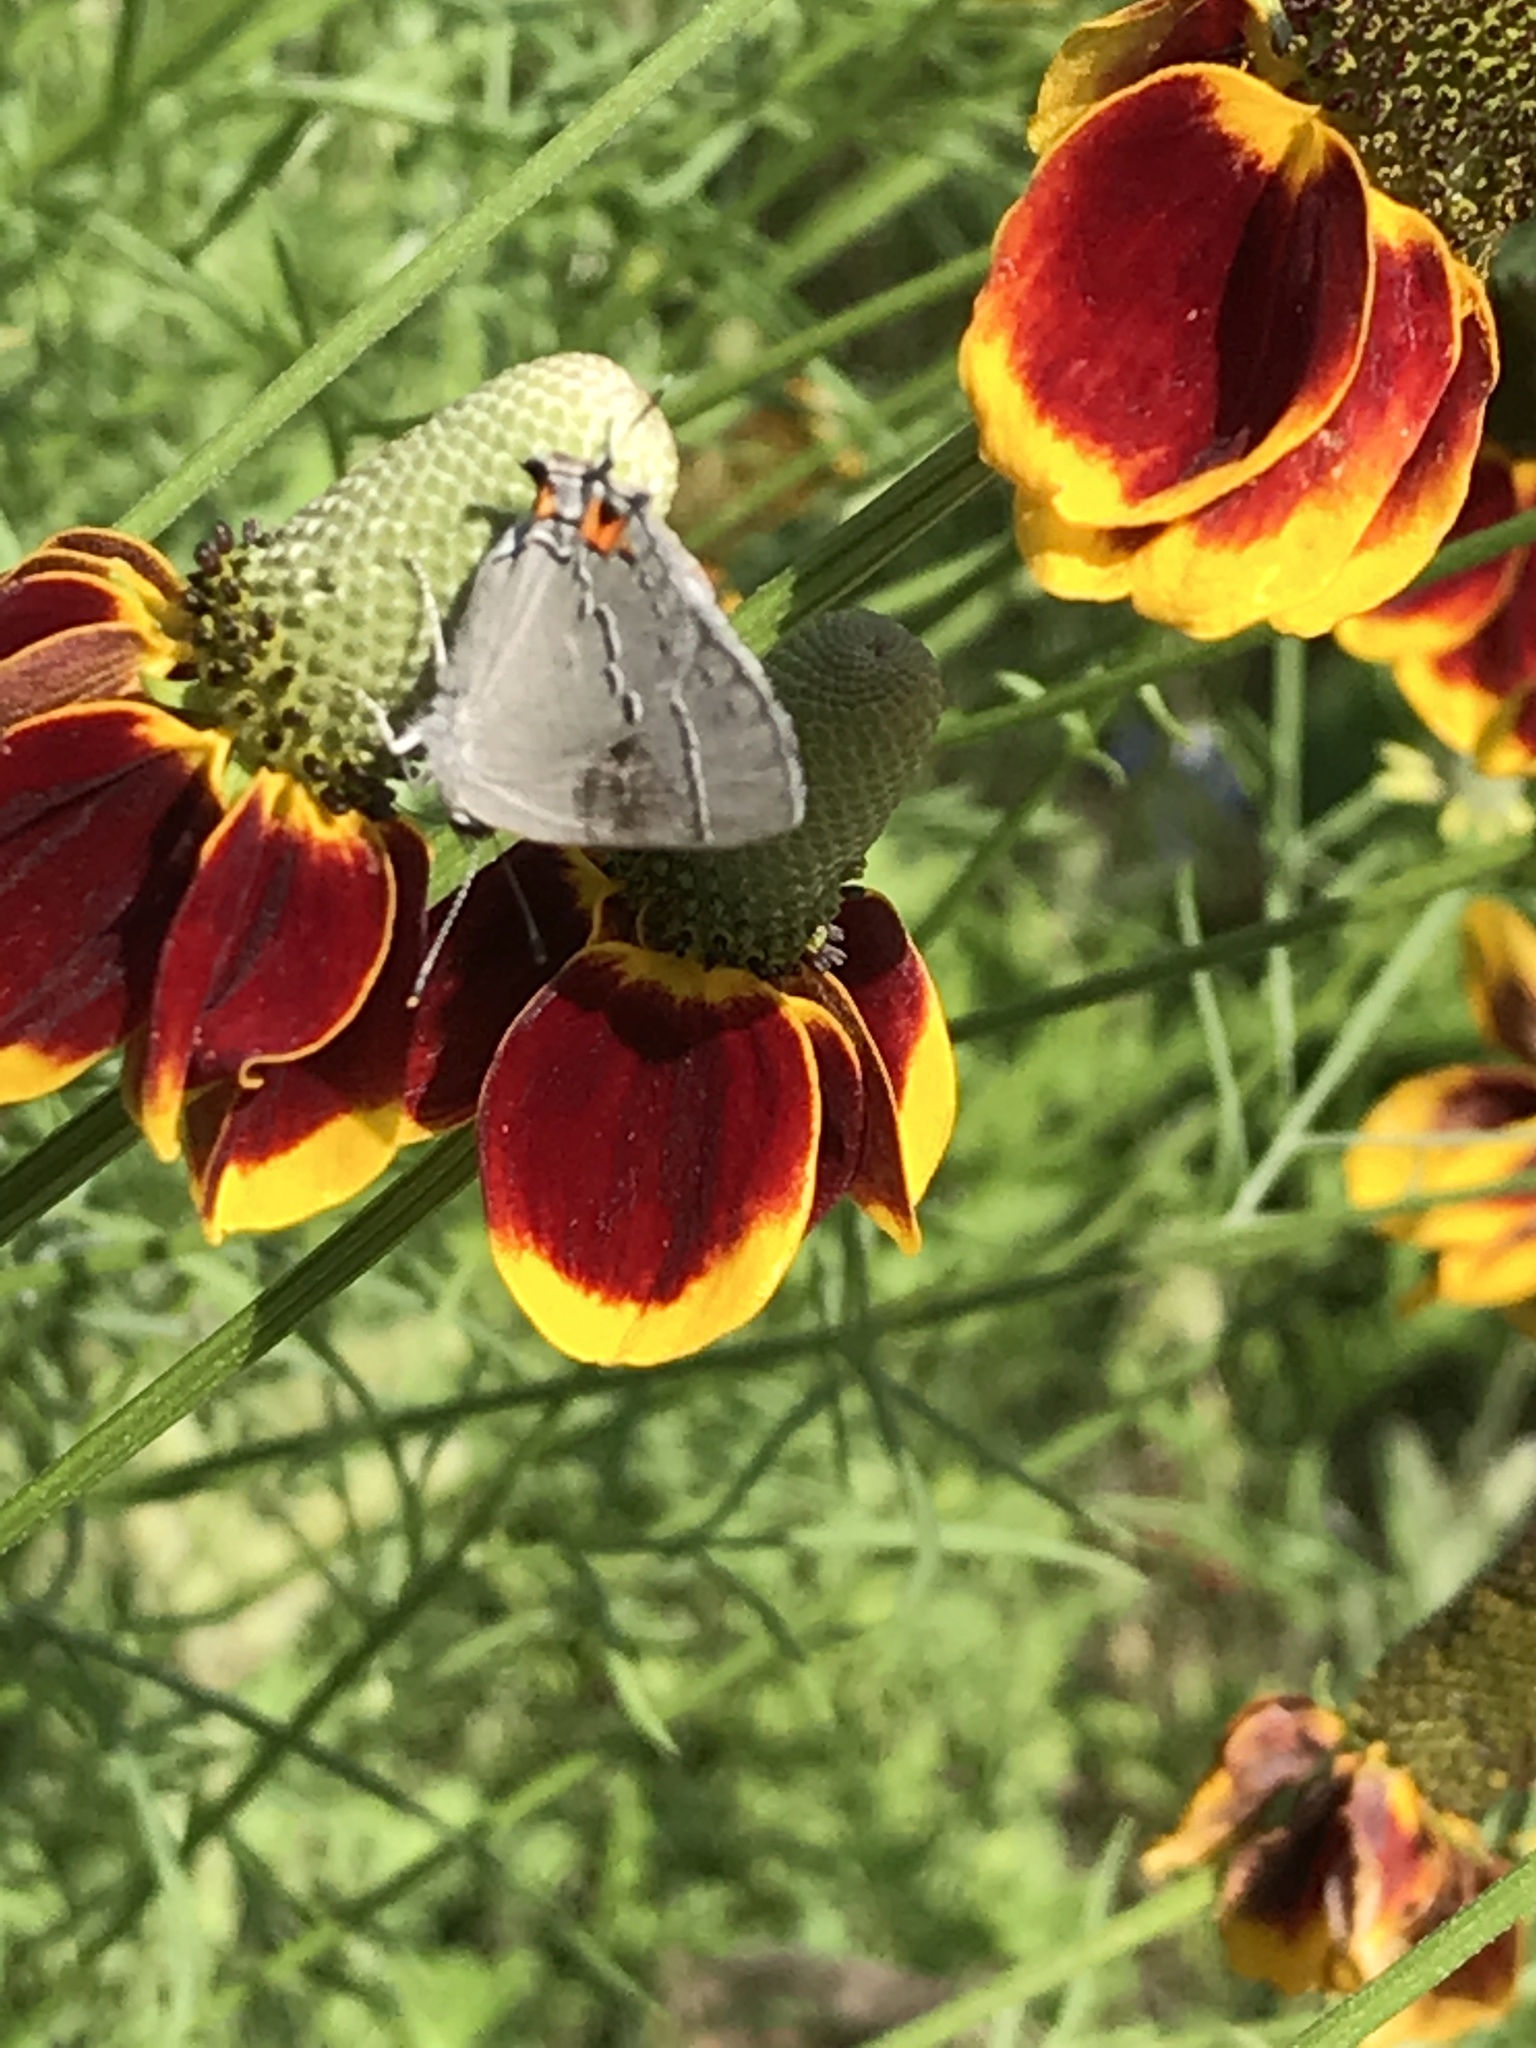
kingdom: Animalia
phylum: Arthropoda
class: Insecta
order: Lepidoptera
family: Lycaenidae
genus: Strymon
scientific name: Strymon melinus
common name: Gray hairstreak
